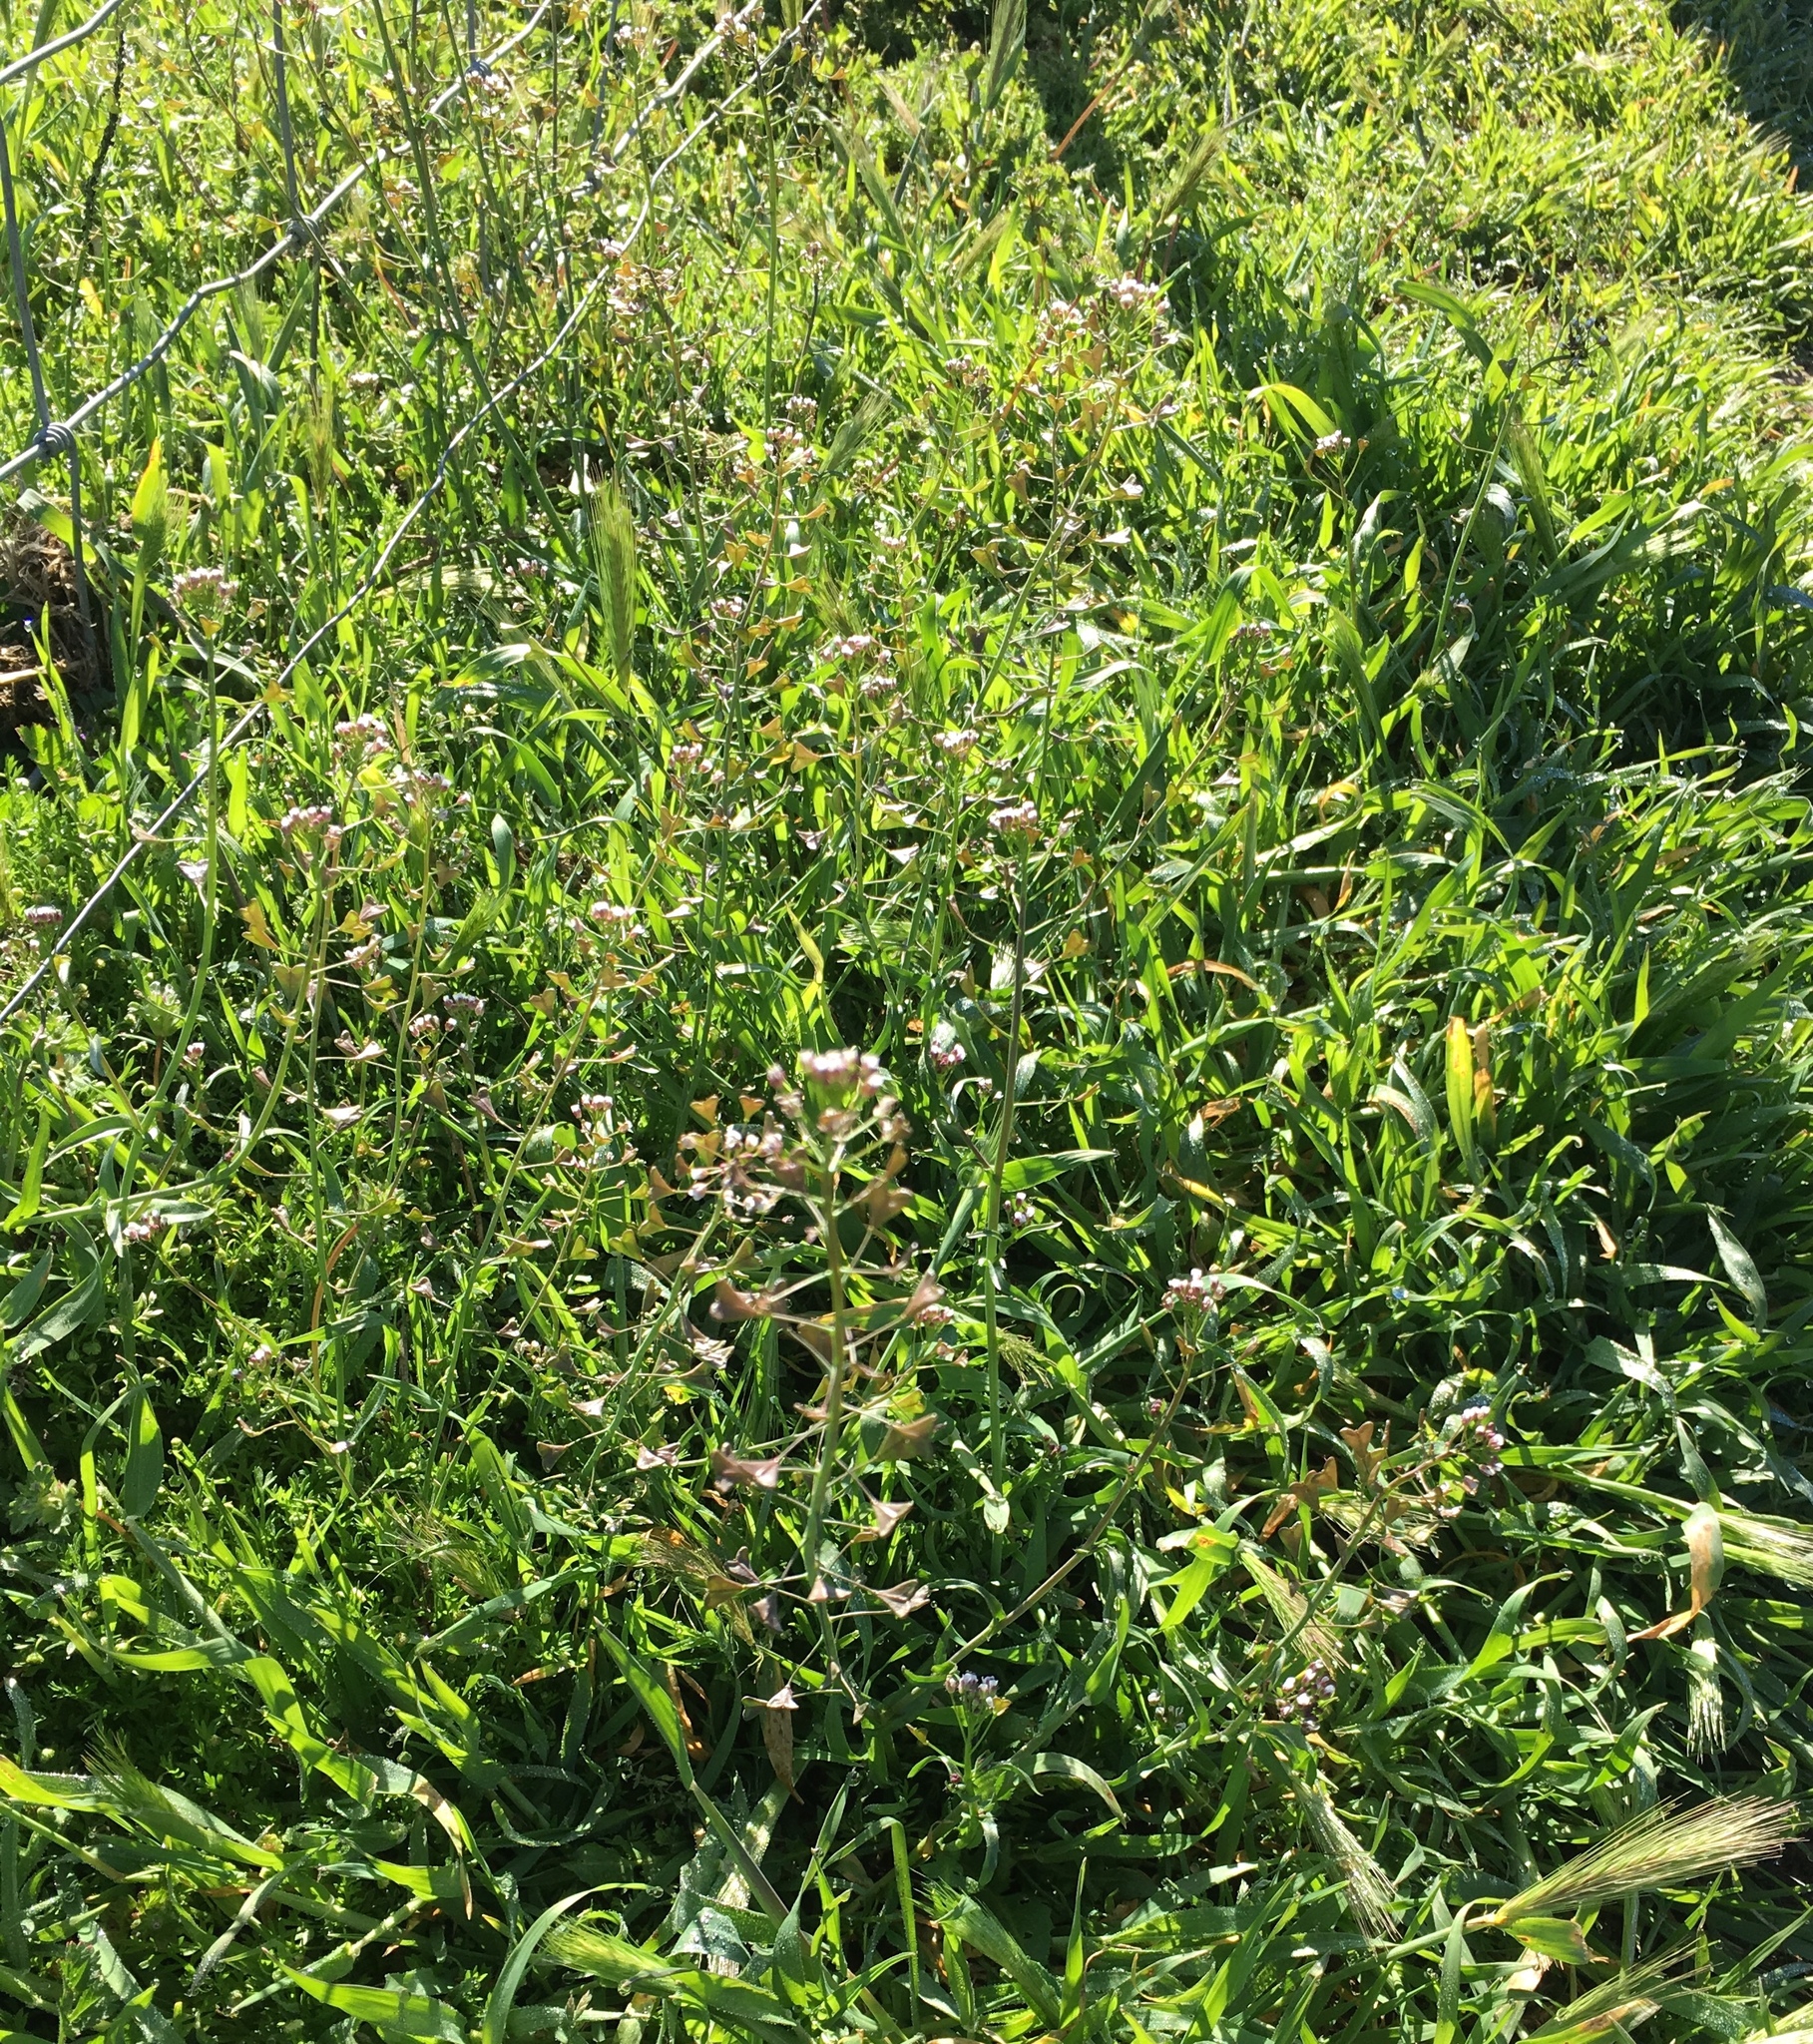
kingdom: Plantae
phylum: Tracheophyta
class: Magnoliopsida
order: Brassicales
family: Brassicaceae
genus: Capsella
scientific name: Capsella bursa-pastoris
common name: Shepherd's purse
